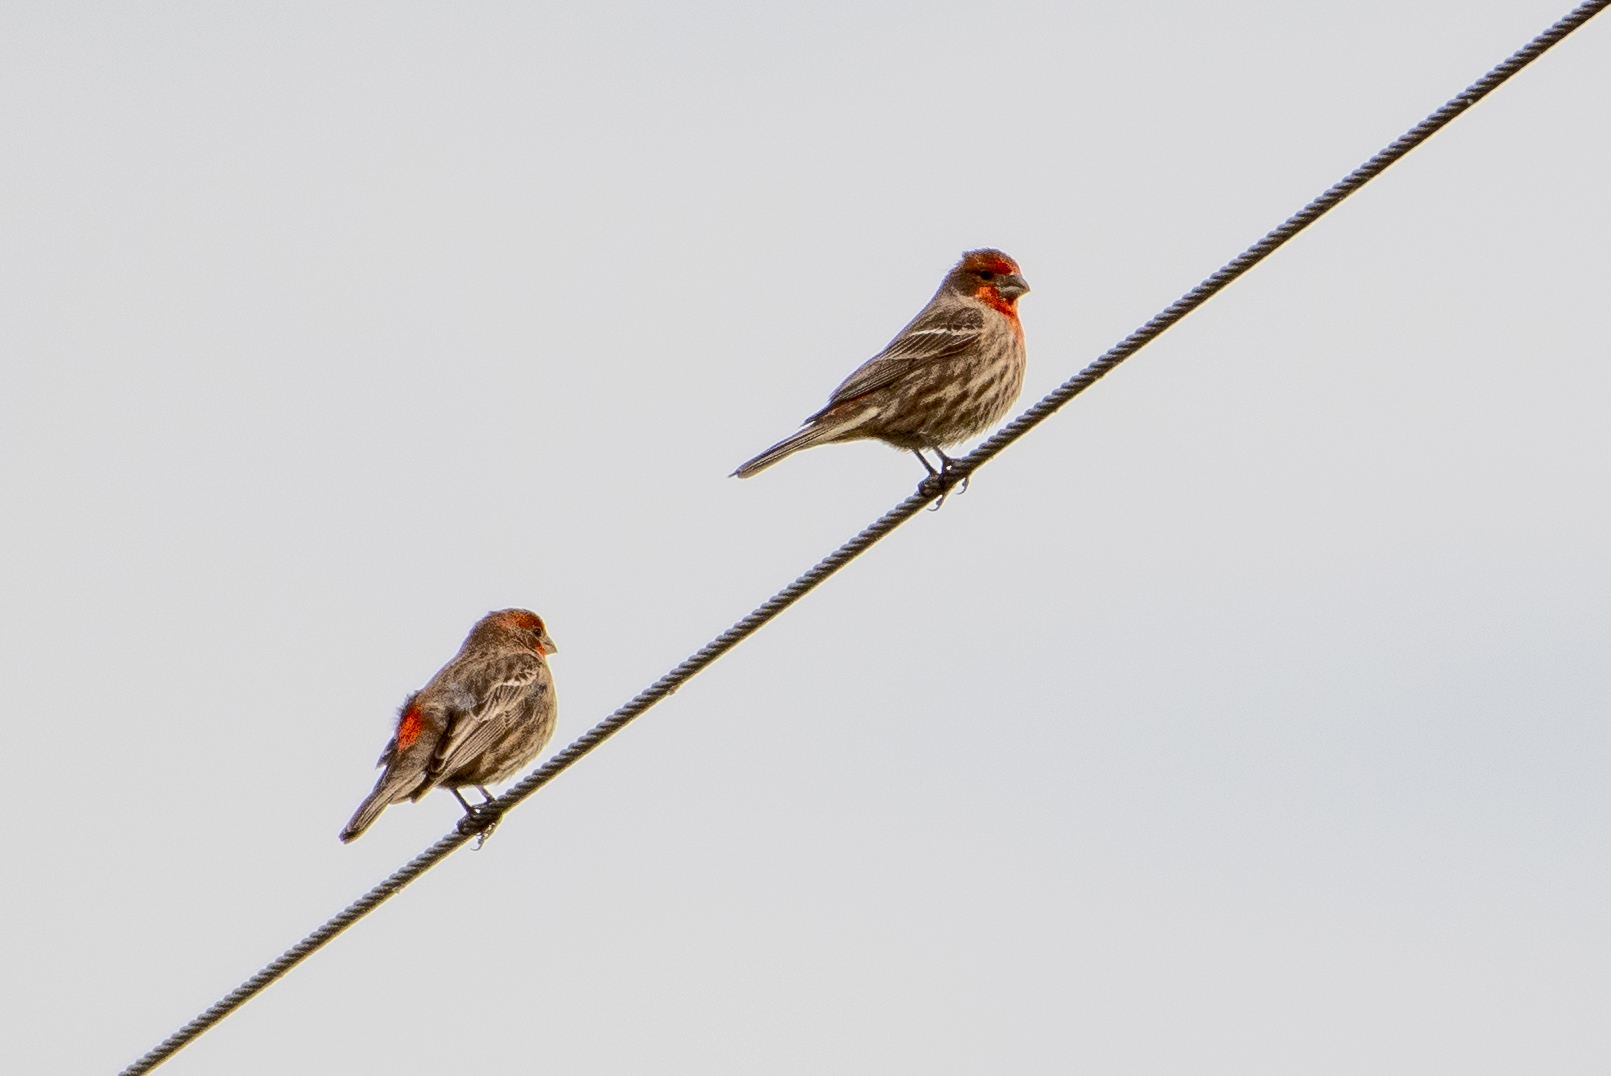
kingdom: Animalia
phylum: Chordata
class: Aves
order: Passeriformes
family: Fringillidae
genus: Haemorhous
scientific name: Haemorhous mexicanus
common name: House finch
